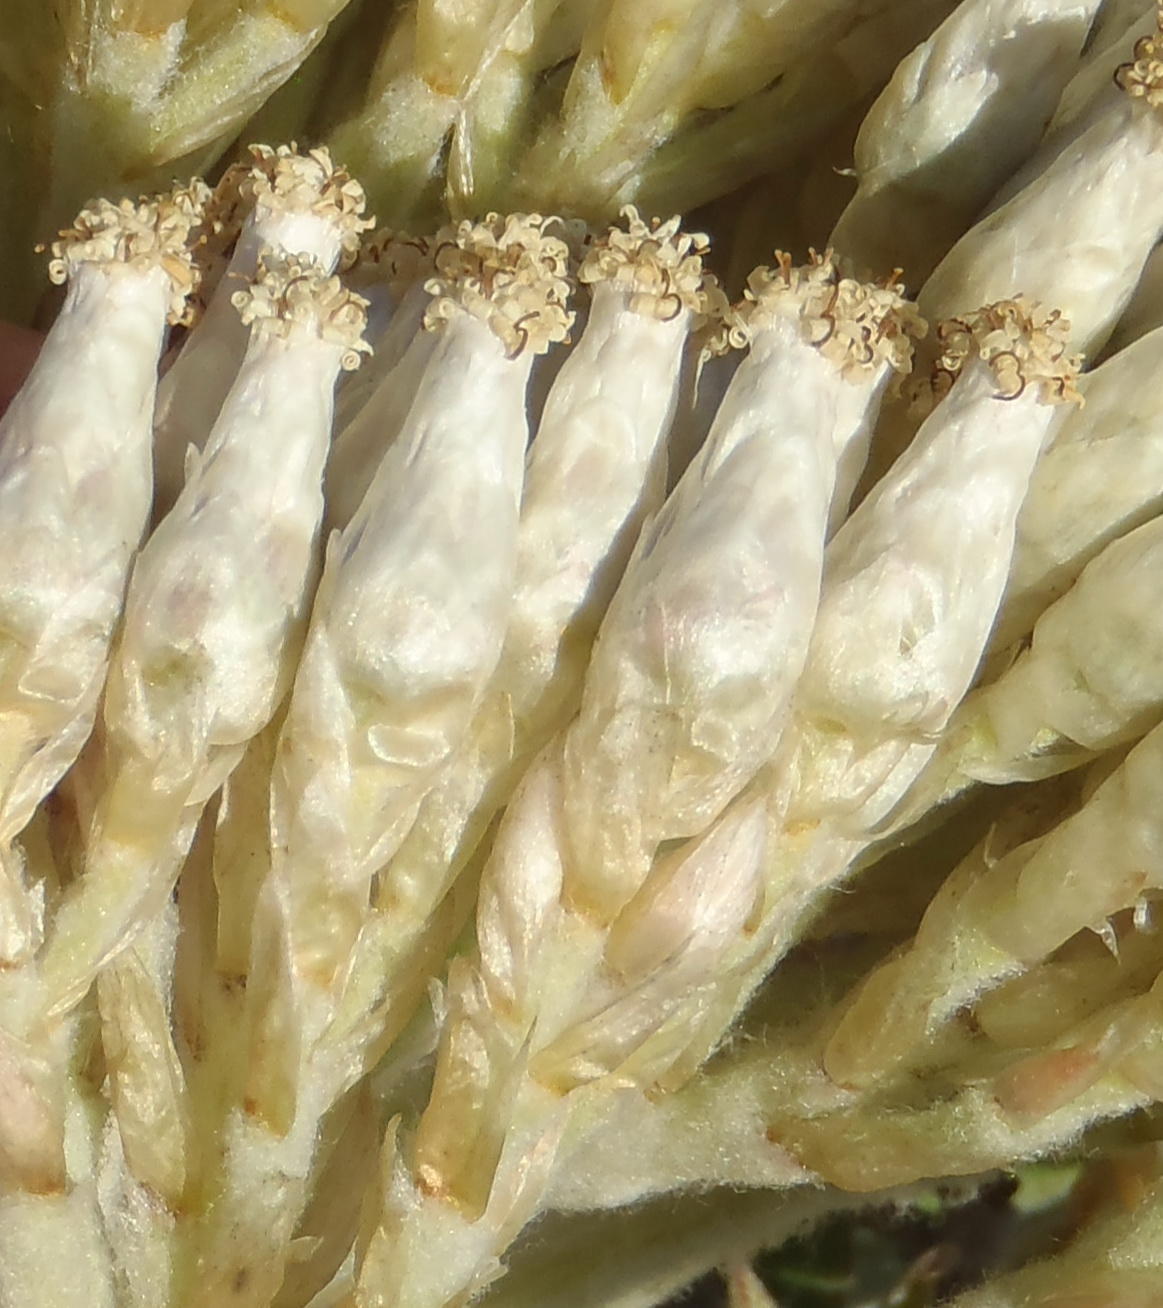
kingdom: Plantae
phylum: Tracheophyta
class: Magnoliopsida
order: Asterales
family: Asteraceae
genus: Syncarpha
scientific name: Syncarpha milleflora
